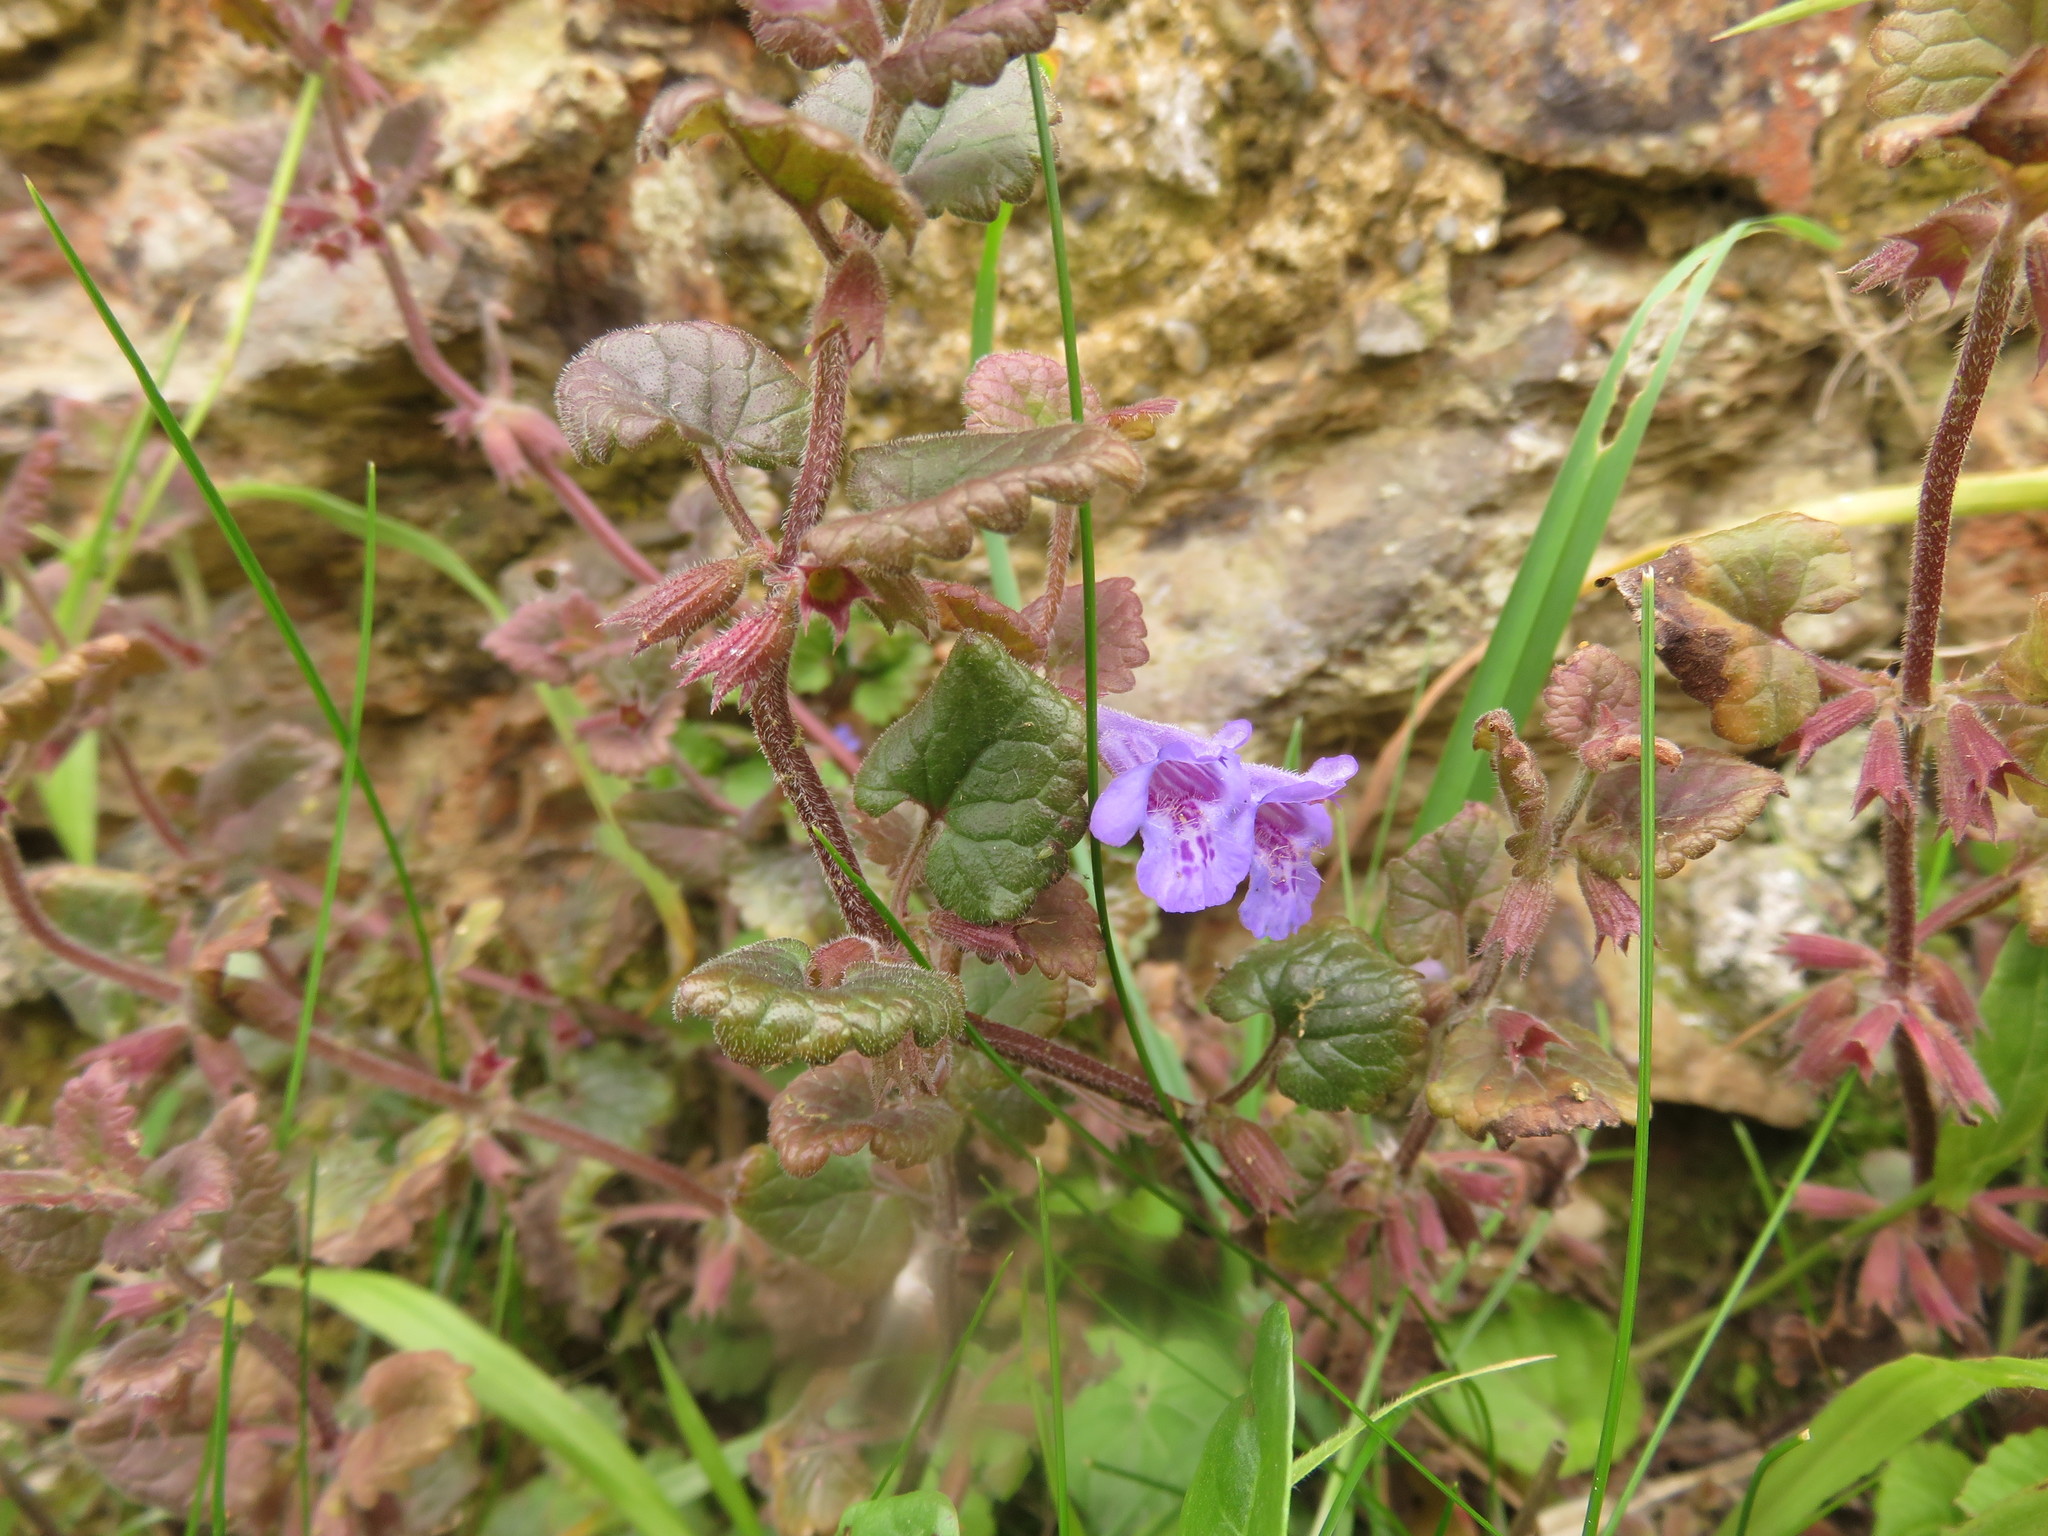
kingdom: Plantae
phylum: Tracheophyta
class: Magnoliopsida
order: Lamiales
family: Lamiaceae
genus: Glechoma
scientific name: Glechoma hederacea
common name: Ground ivy
